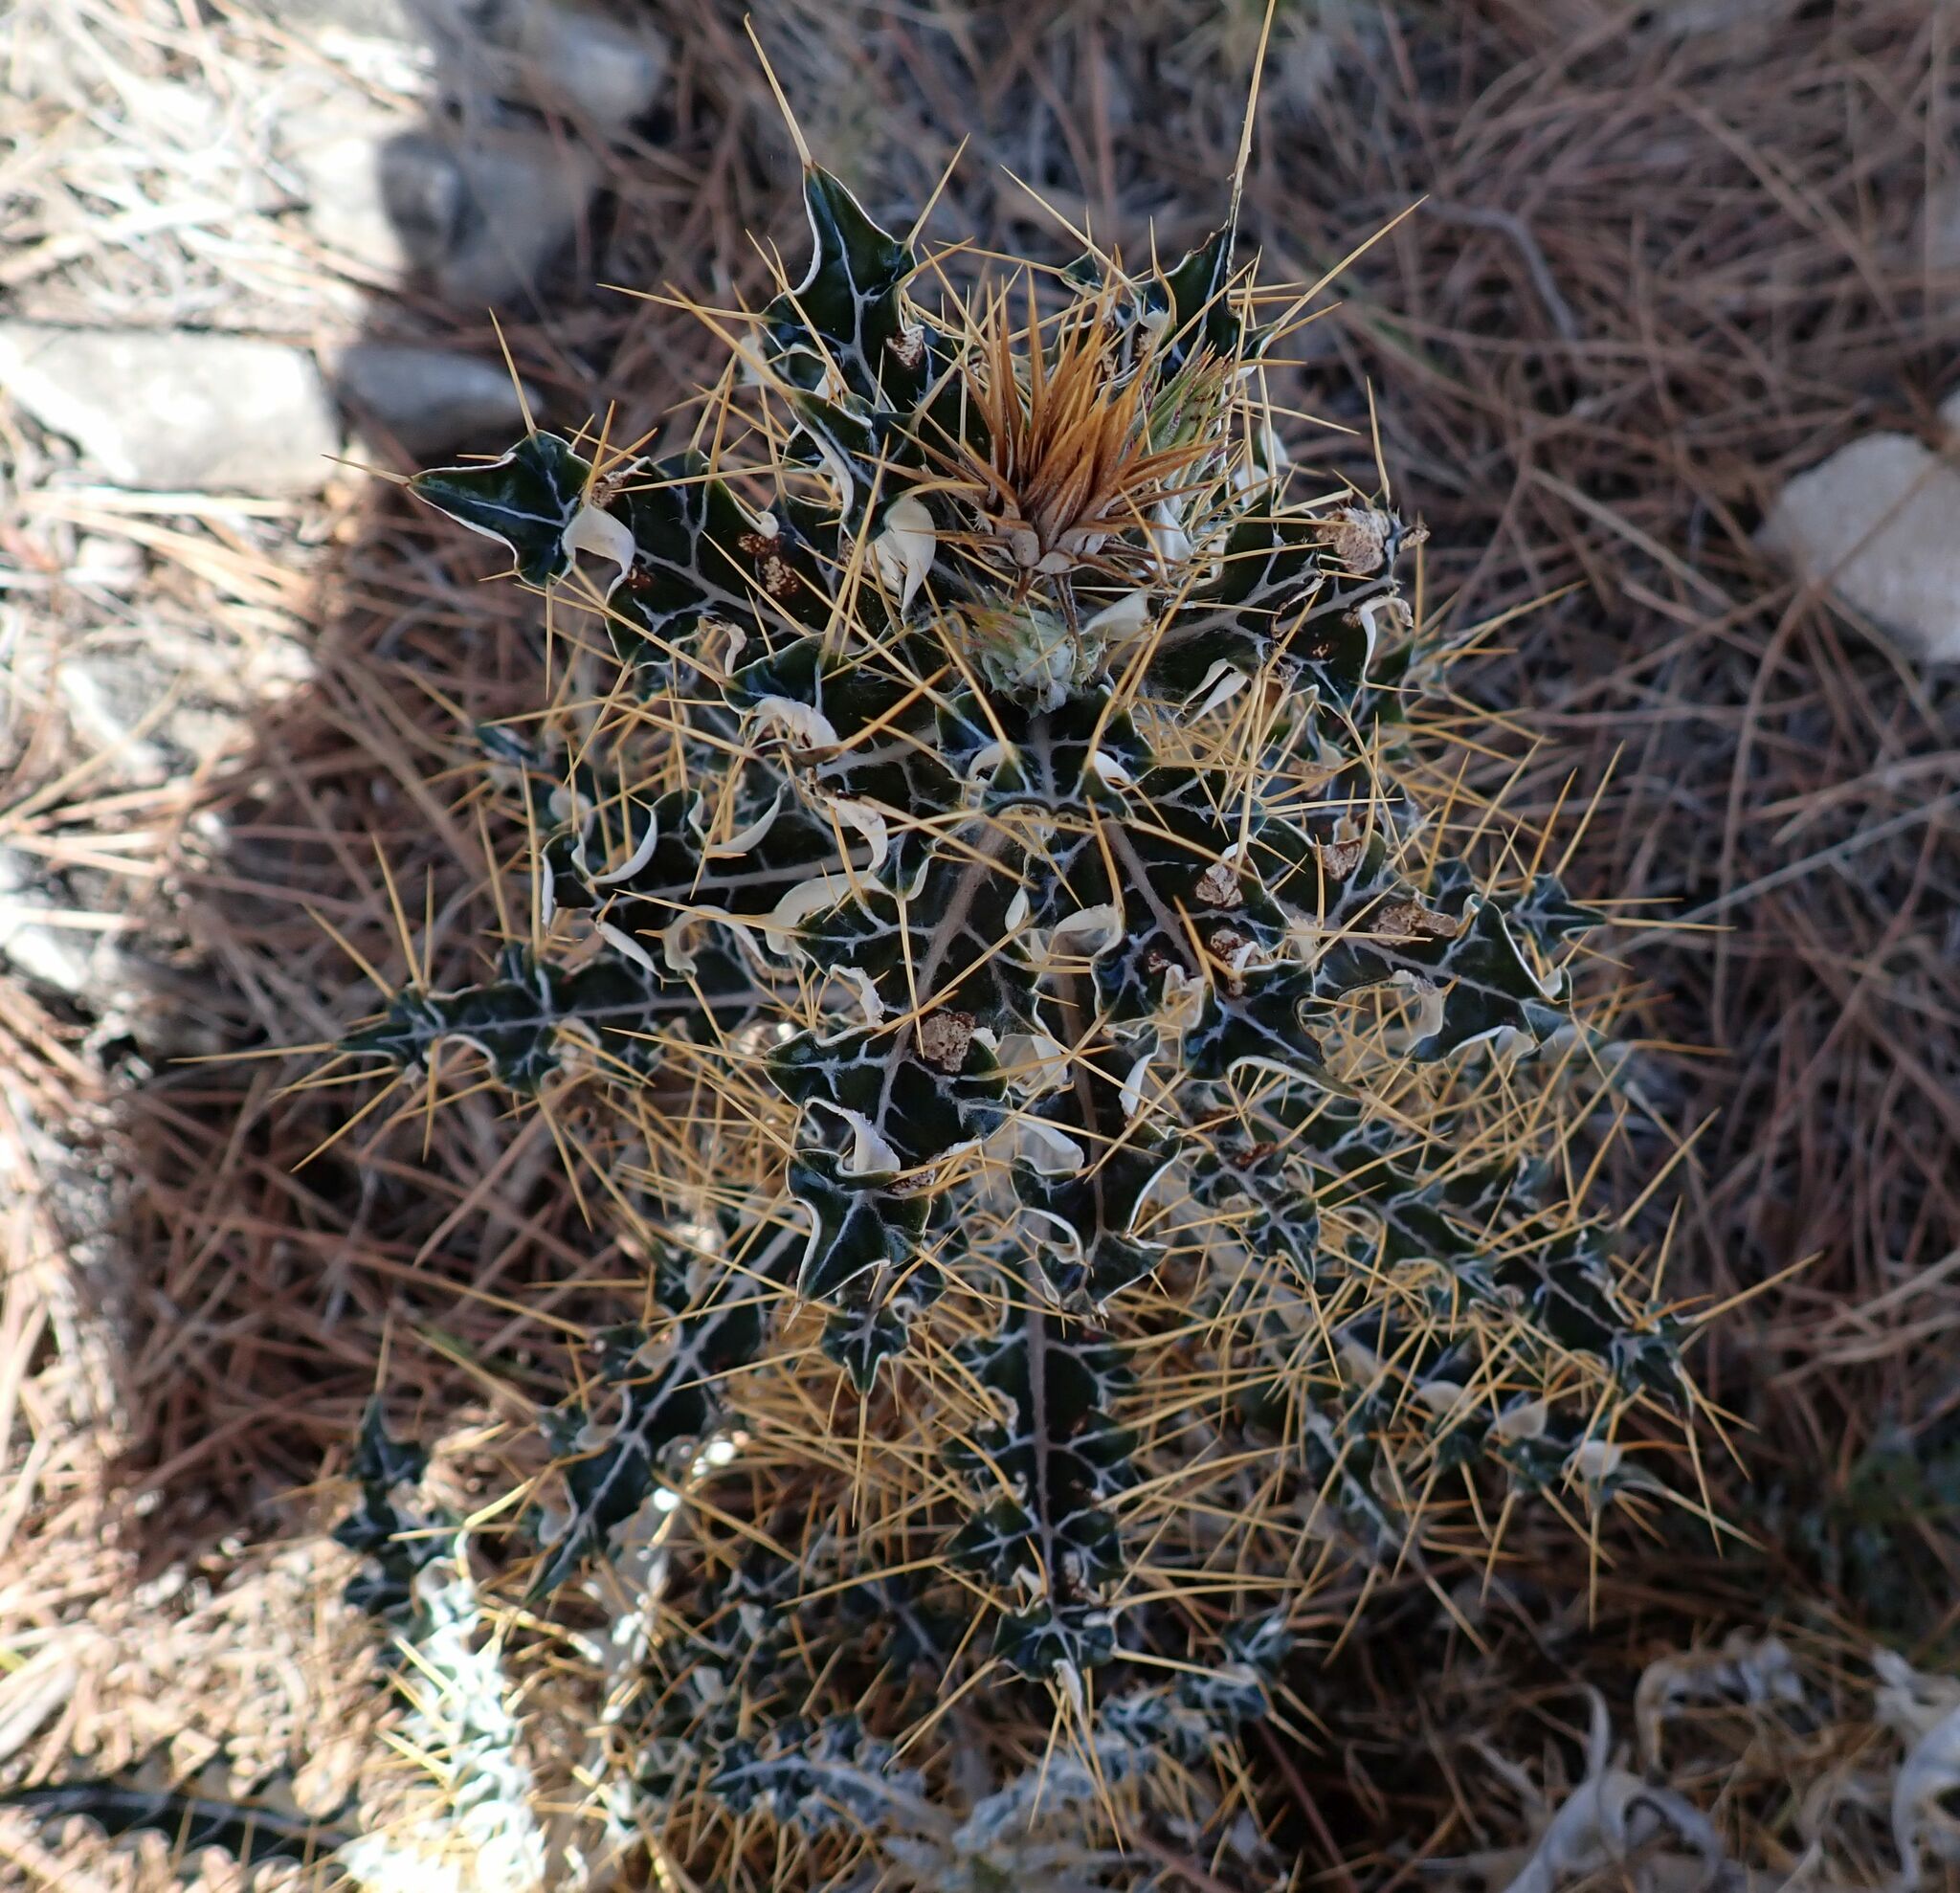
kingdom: Plantae
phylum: Tracheophyta
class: Magnoliopsida
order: Asterales
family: Asteraceae
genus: Ptilostemon
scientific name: Ptilostemon hispanicus
